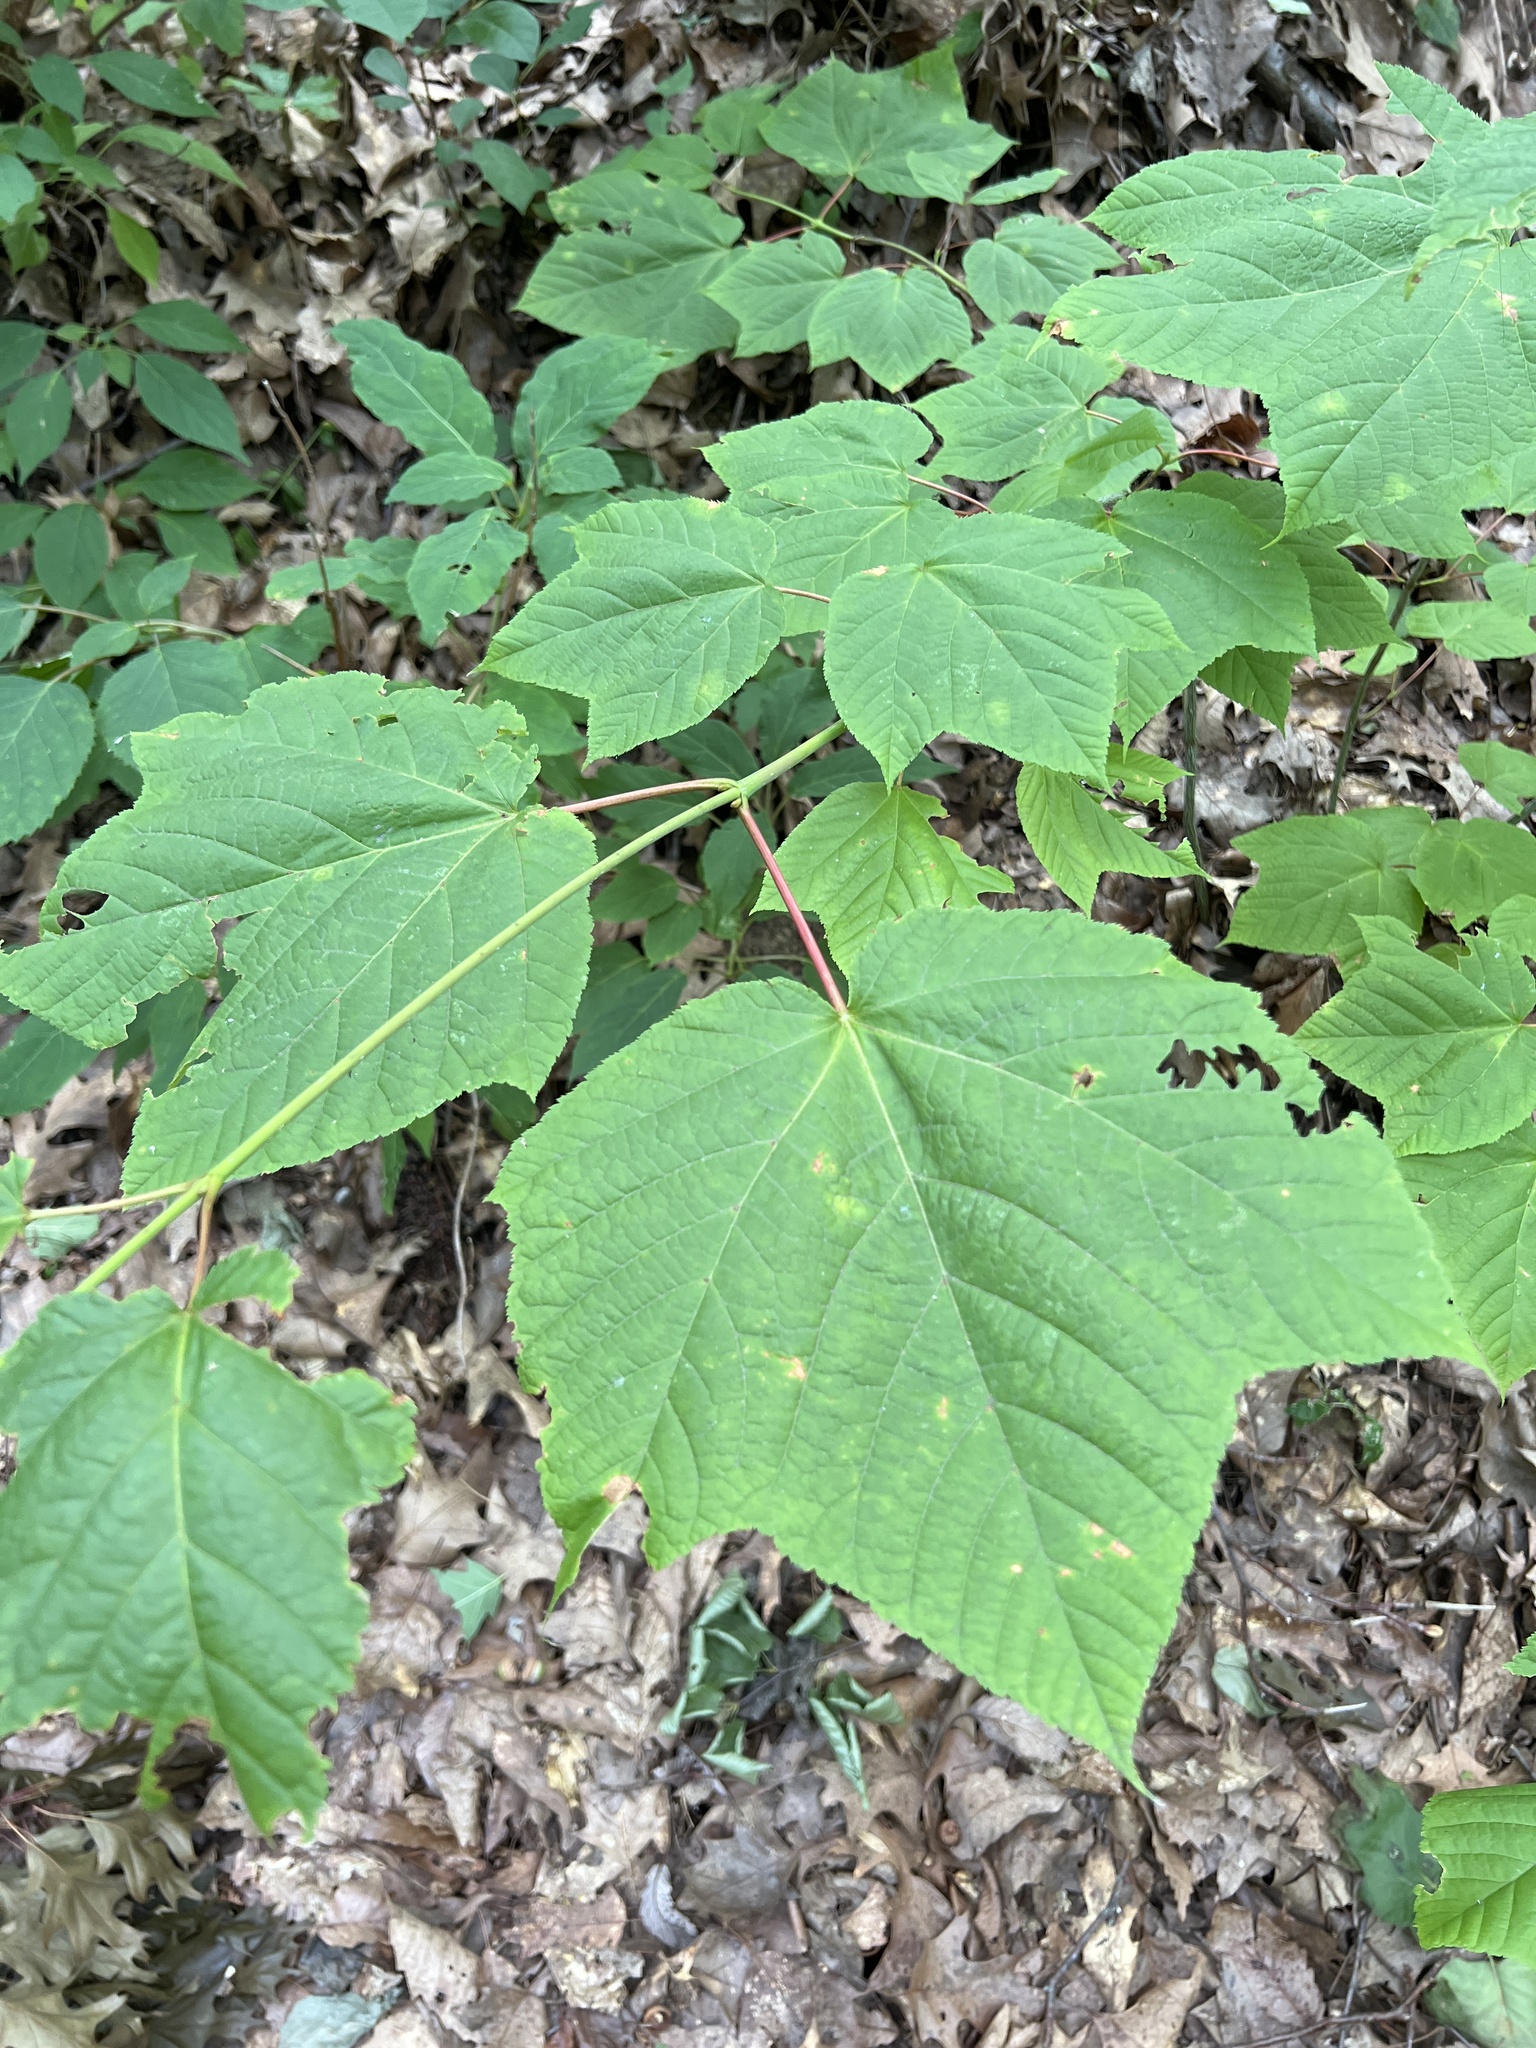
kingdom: Plantae
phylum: Tracheophyta
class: Magnoliopsida
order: Sapindales
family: Sapindaceae
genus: Acer
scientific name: Acer pensylvanicum
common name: Moosewood
